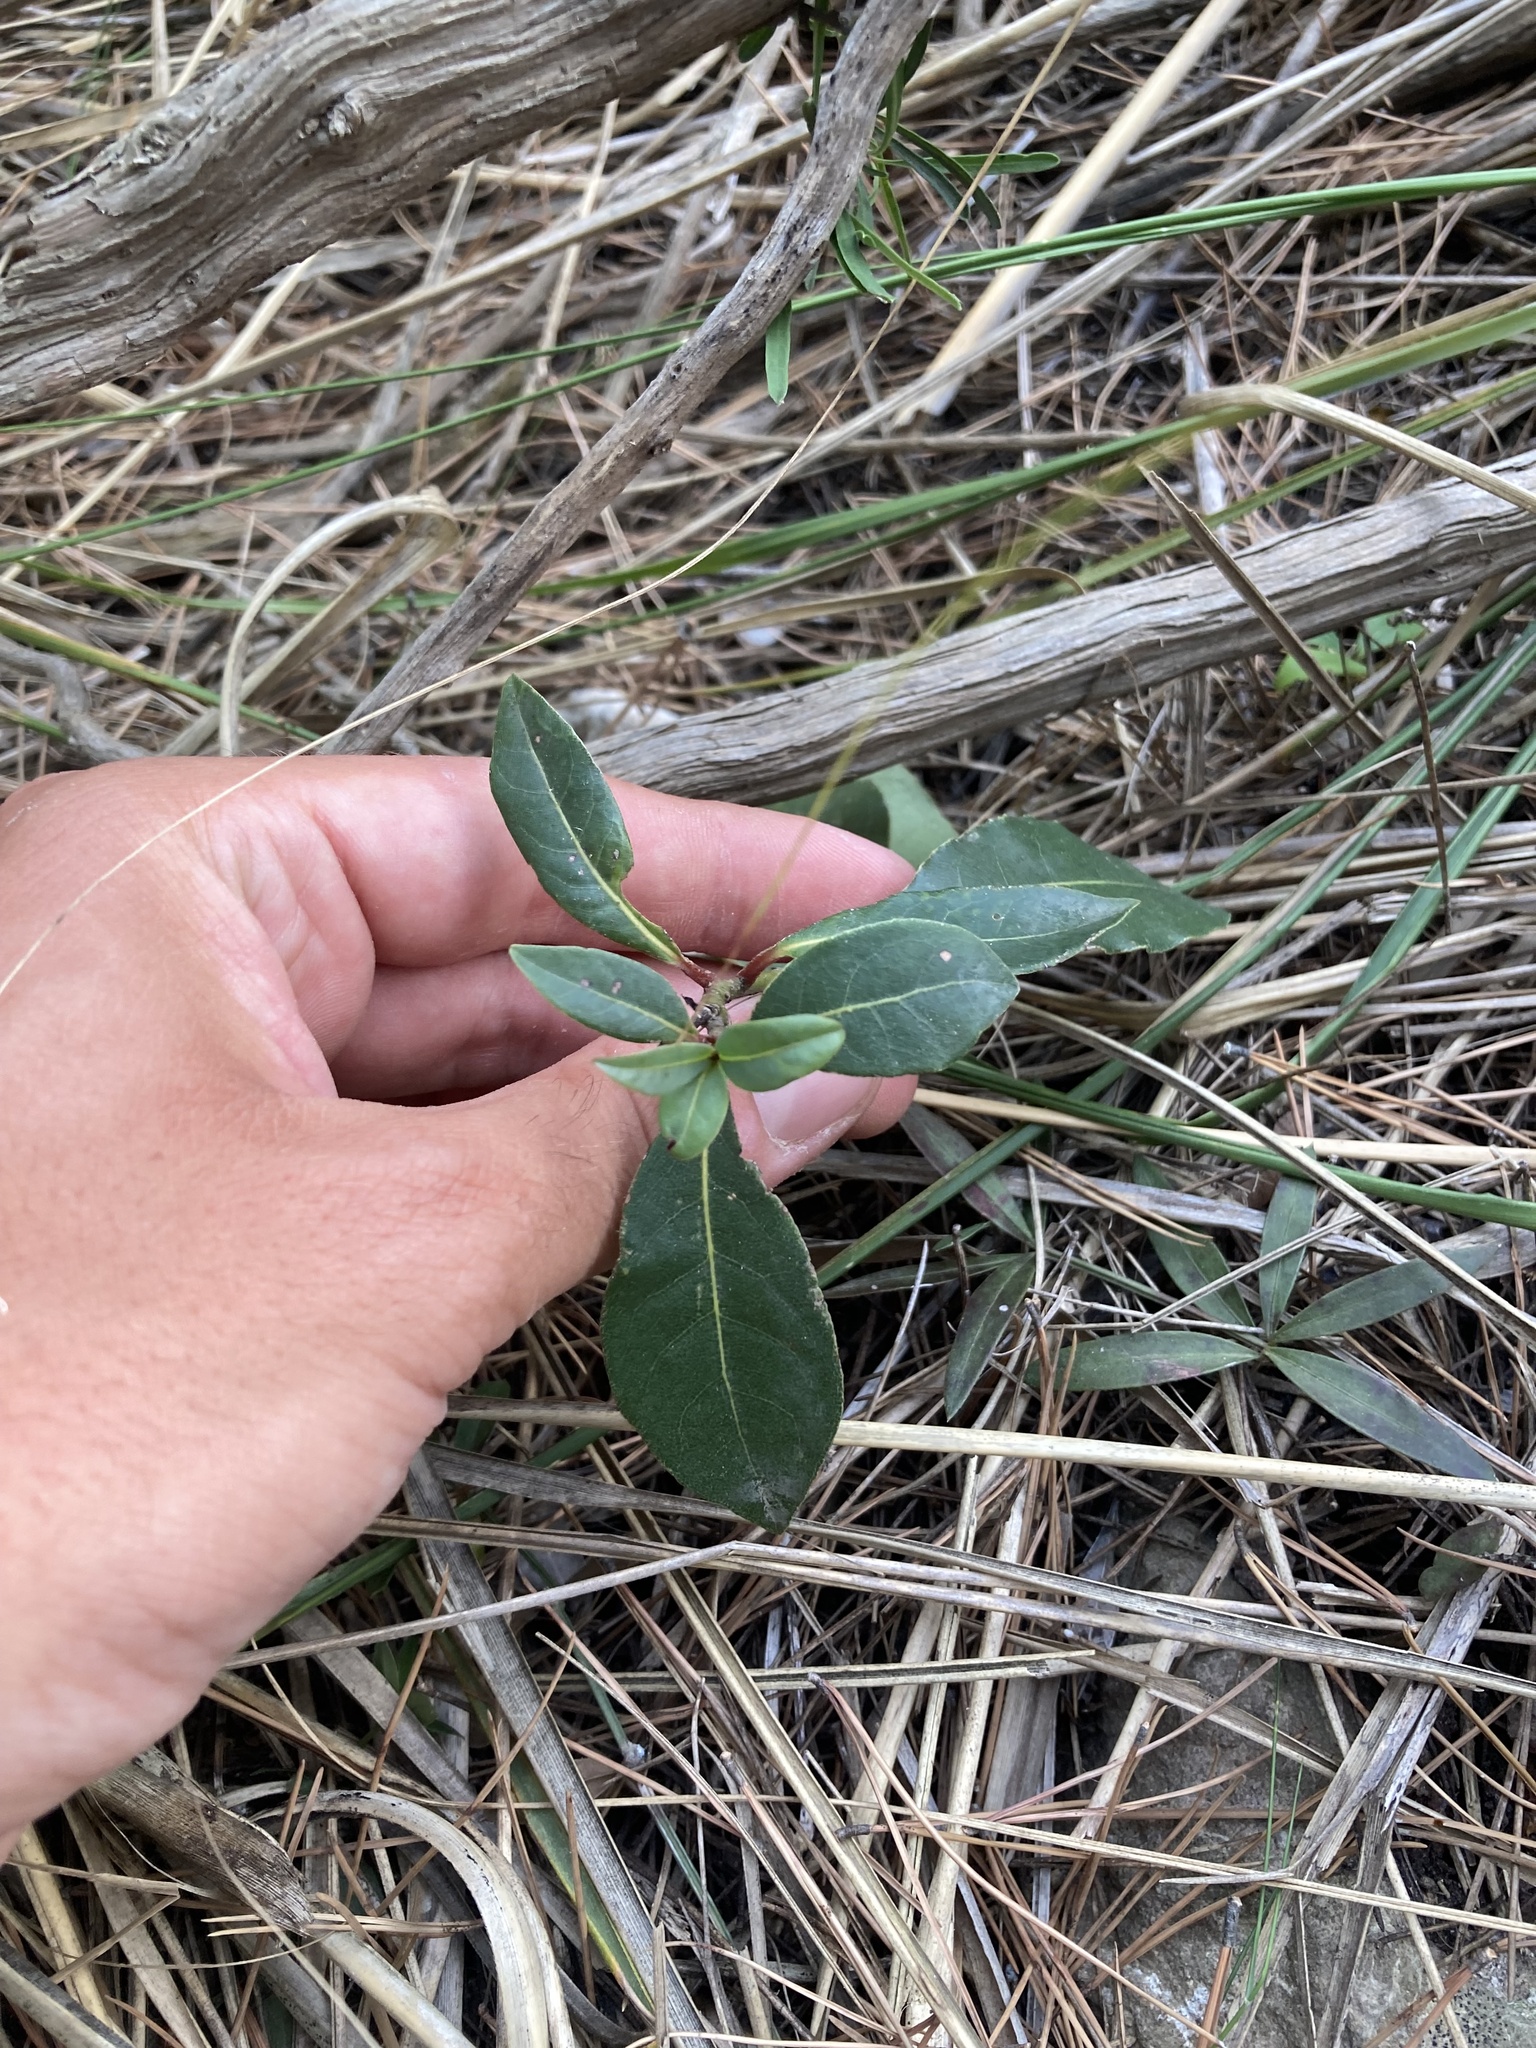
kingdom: Plantae
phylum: Tracheophyta
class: Magnoliopsida
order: Laurales
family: Lauraceae
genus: Laurus
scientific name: Laurus nobilis
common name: Bay
